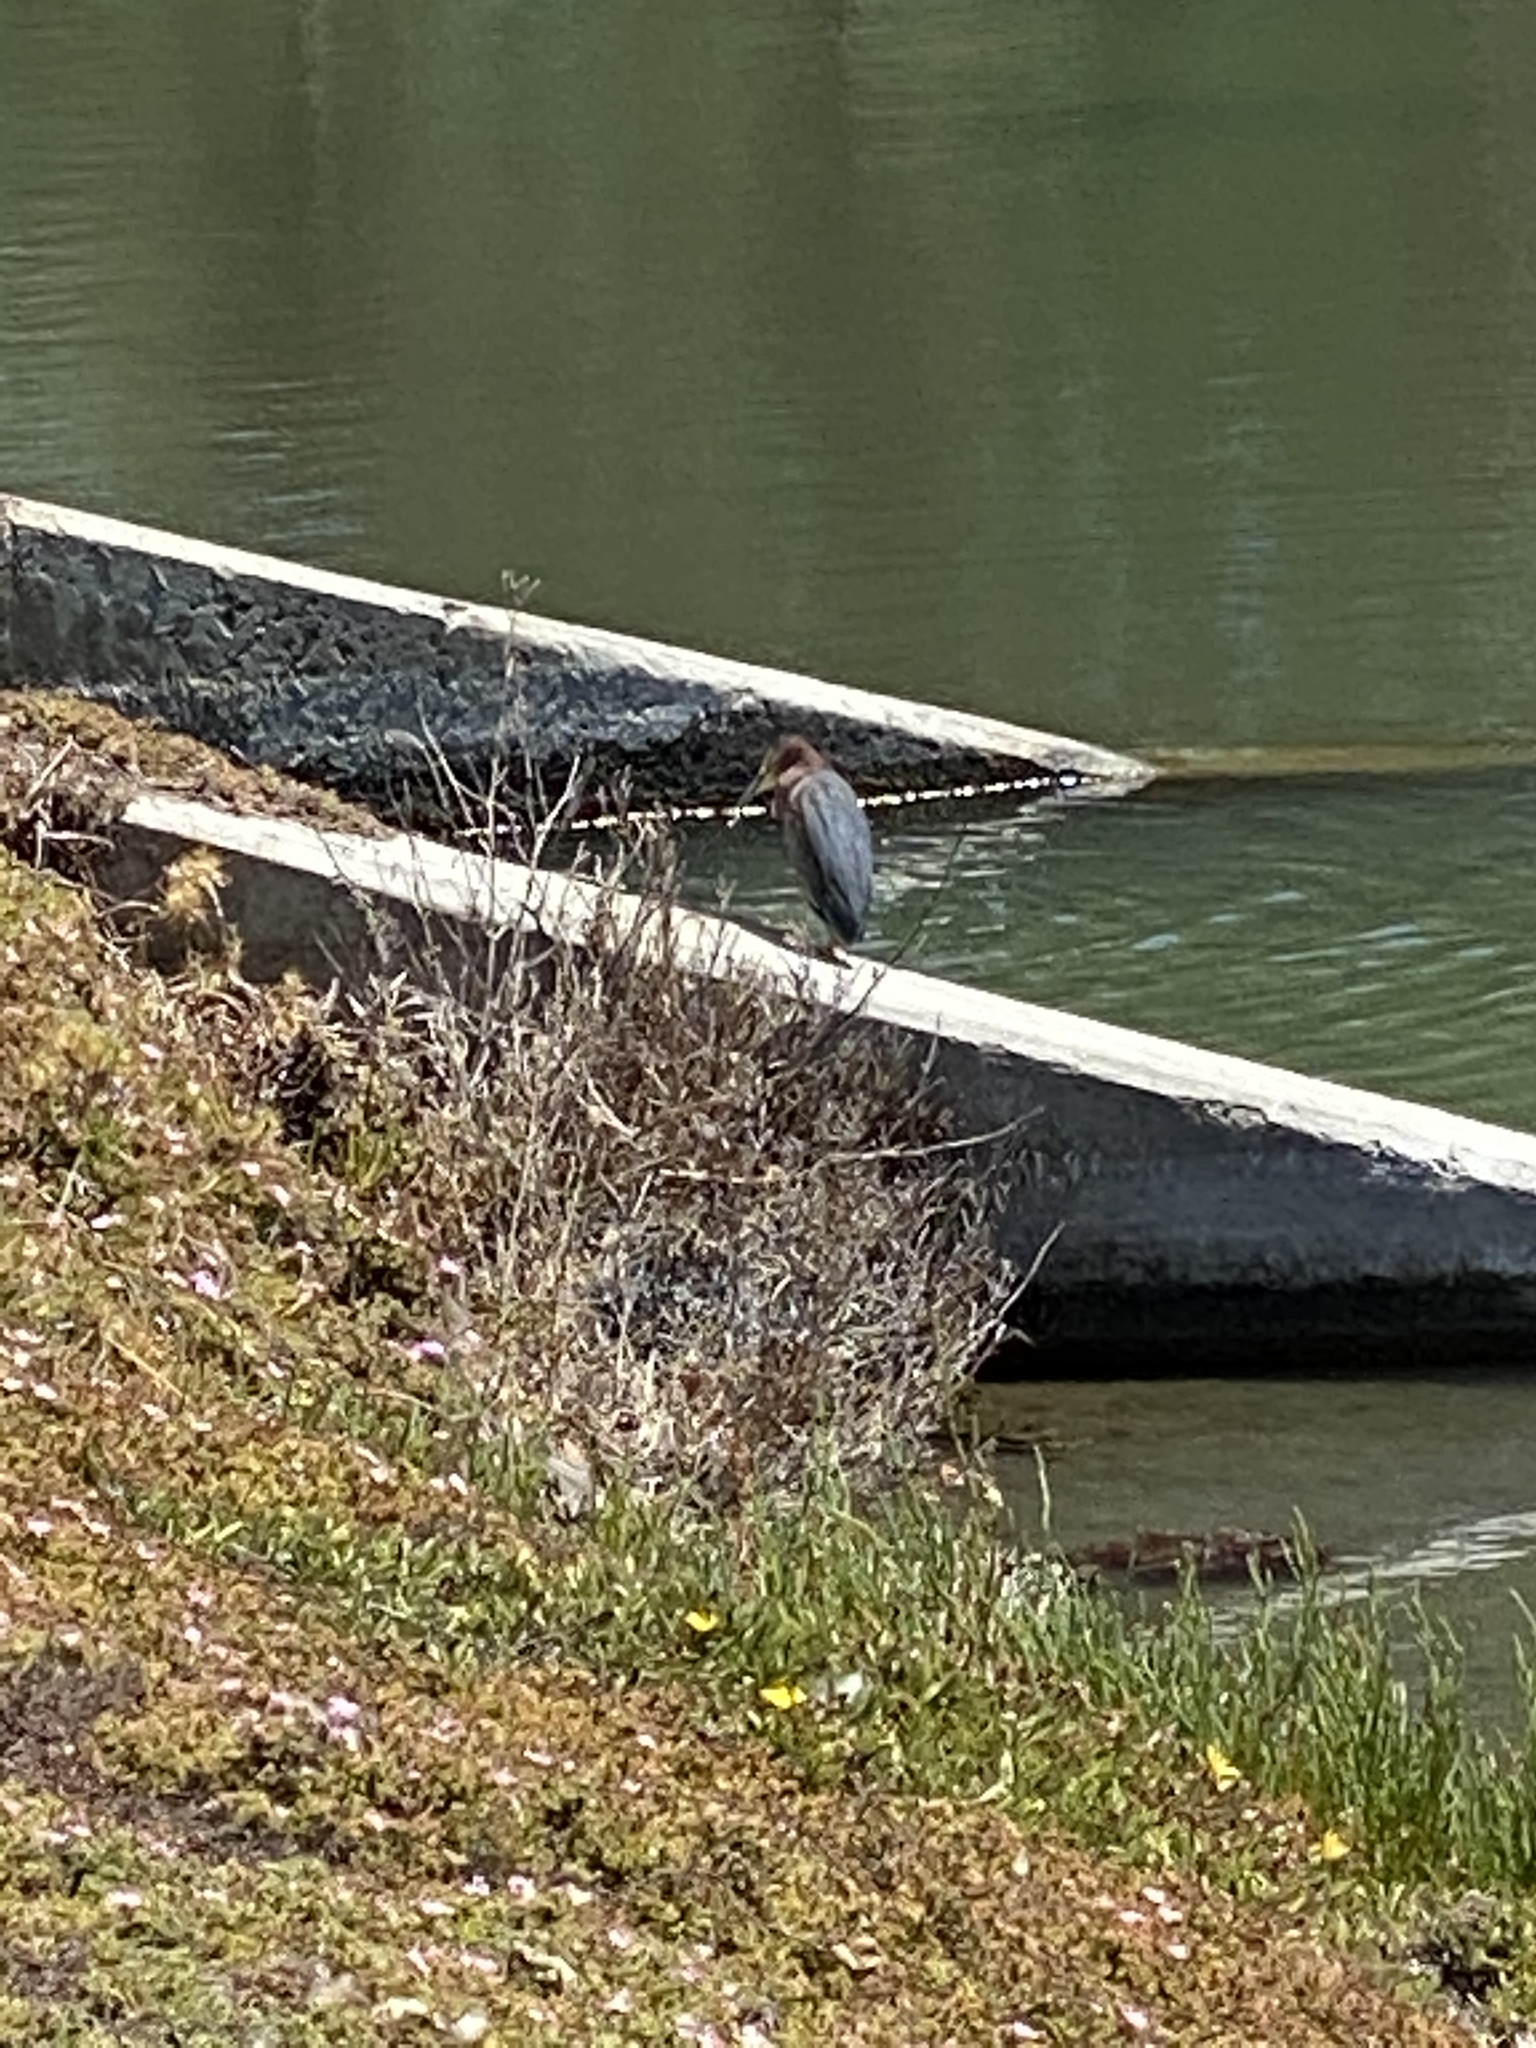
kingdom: Animalia
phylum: Chordata
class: Aves
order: Pelecaniformes
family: Ardeidae
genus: Butorides
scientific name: Butorides virescens
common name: Green heron
